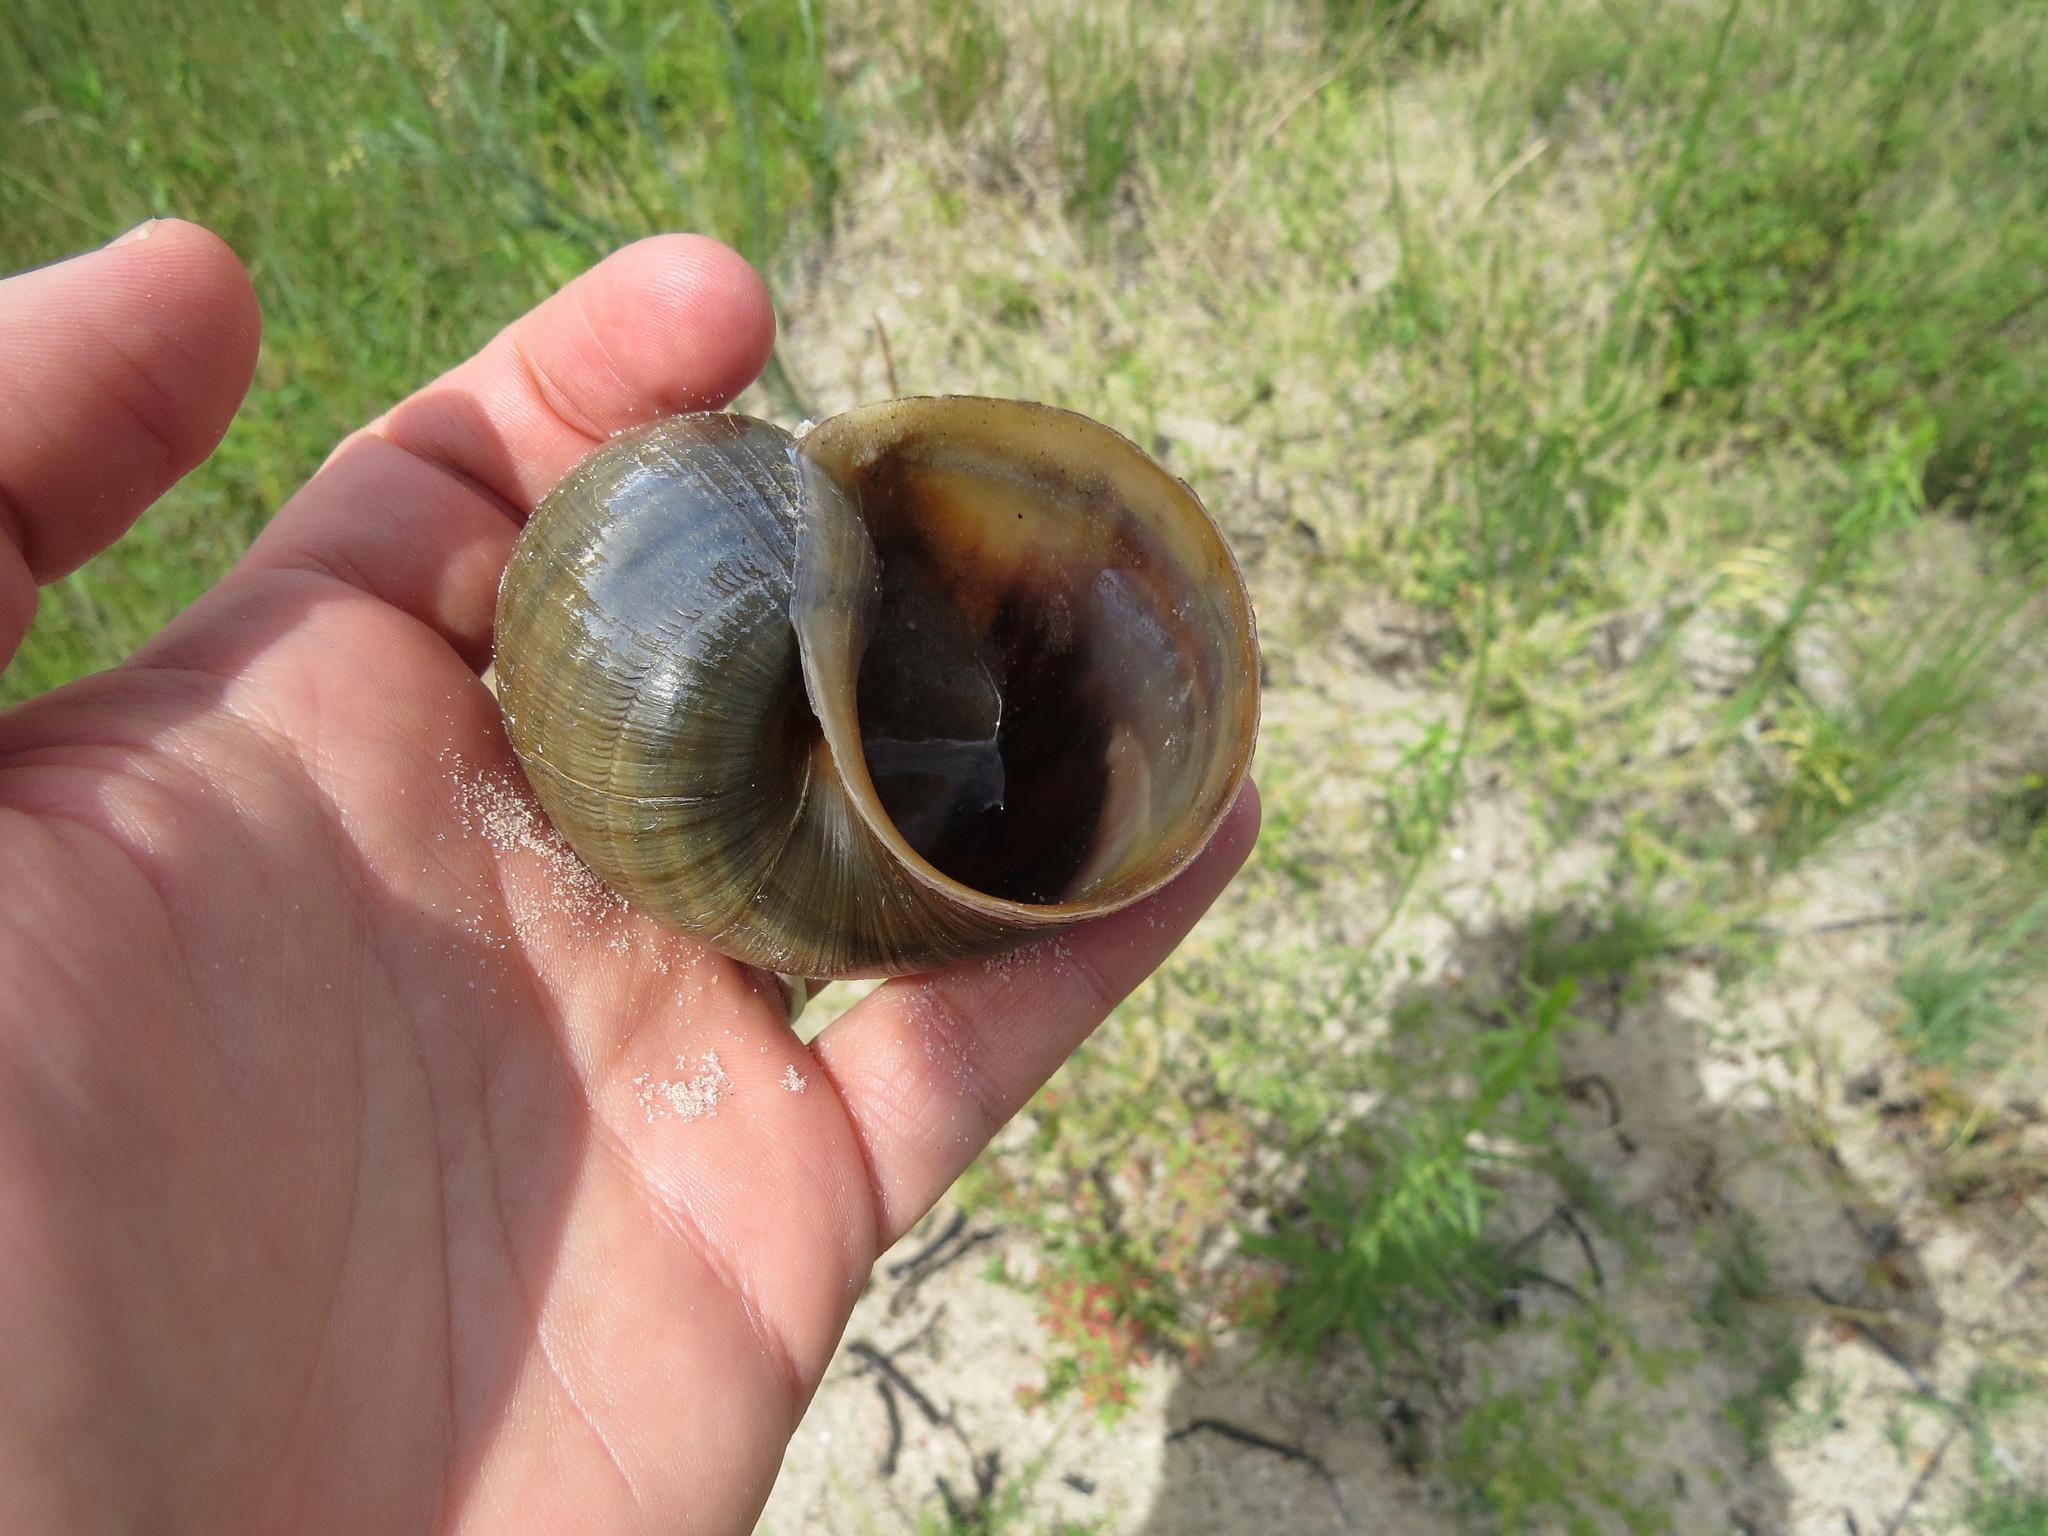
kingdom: Animalia
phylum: Mollusca
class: Gastropoda
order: Architaenioglossa
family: Ampullariidae
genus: Pomacea
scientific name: Pomacea canaliculata
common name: Channeled applesnail
